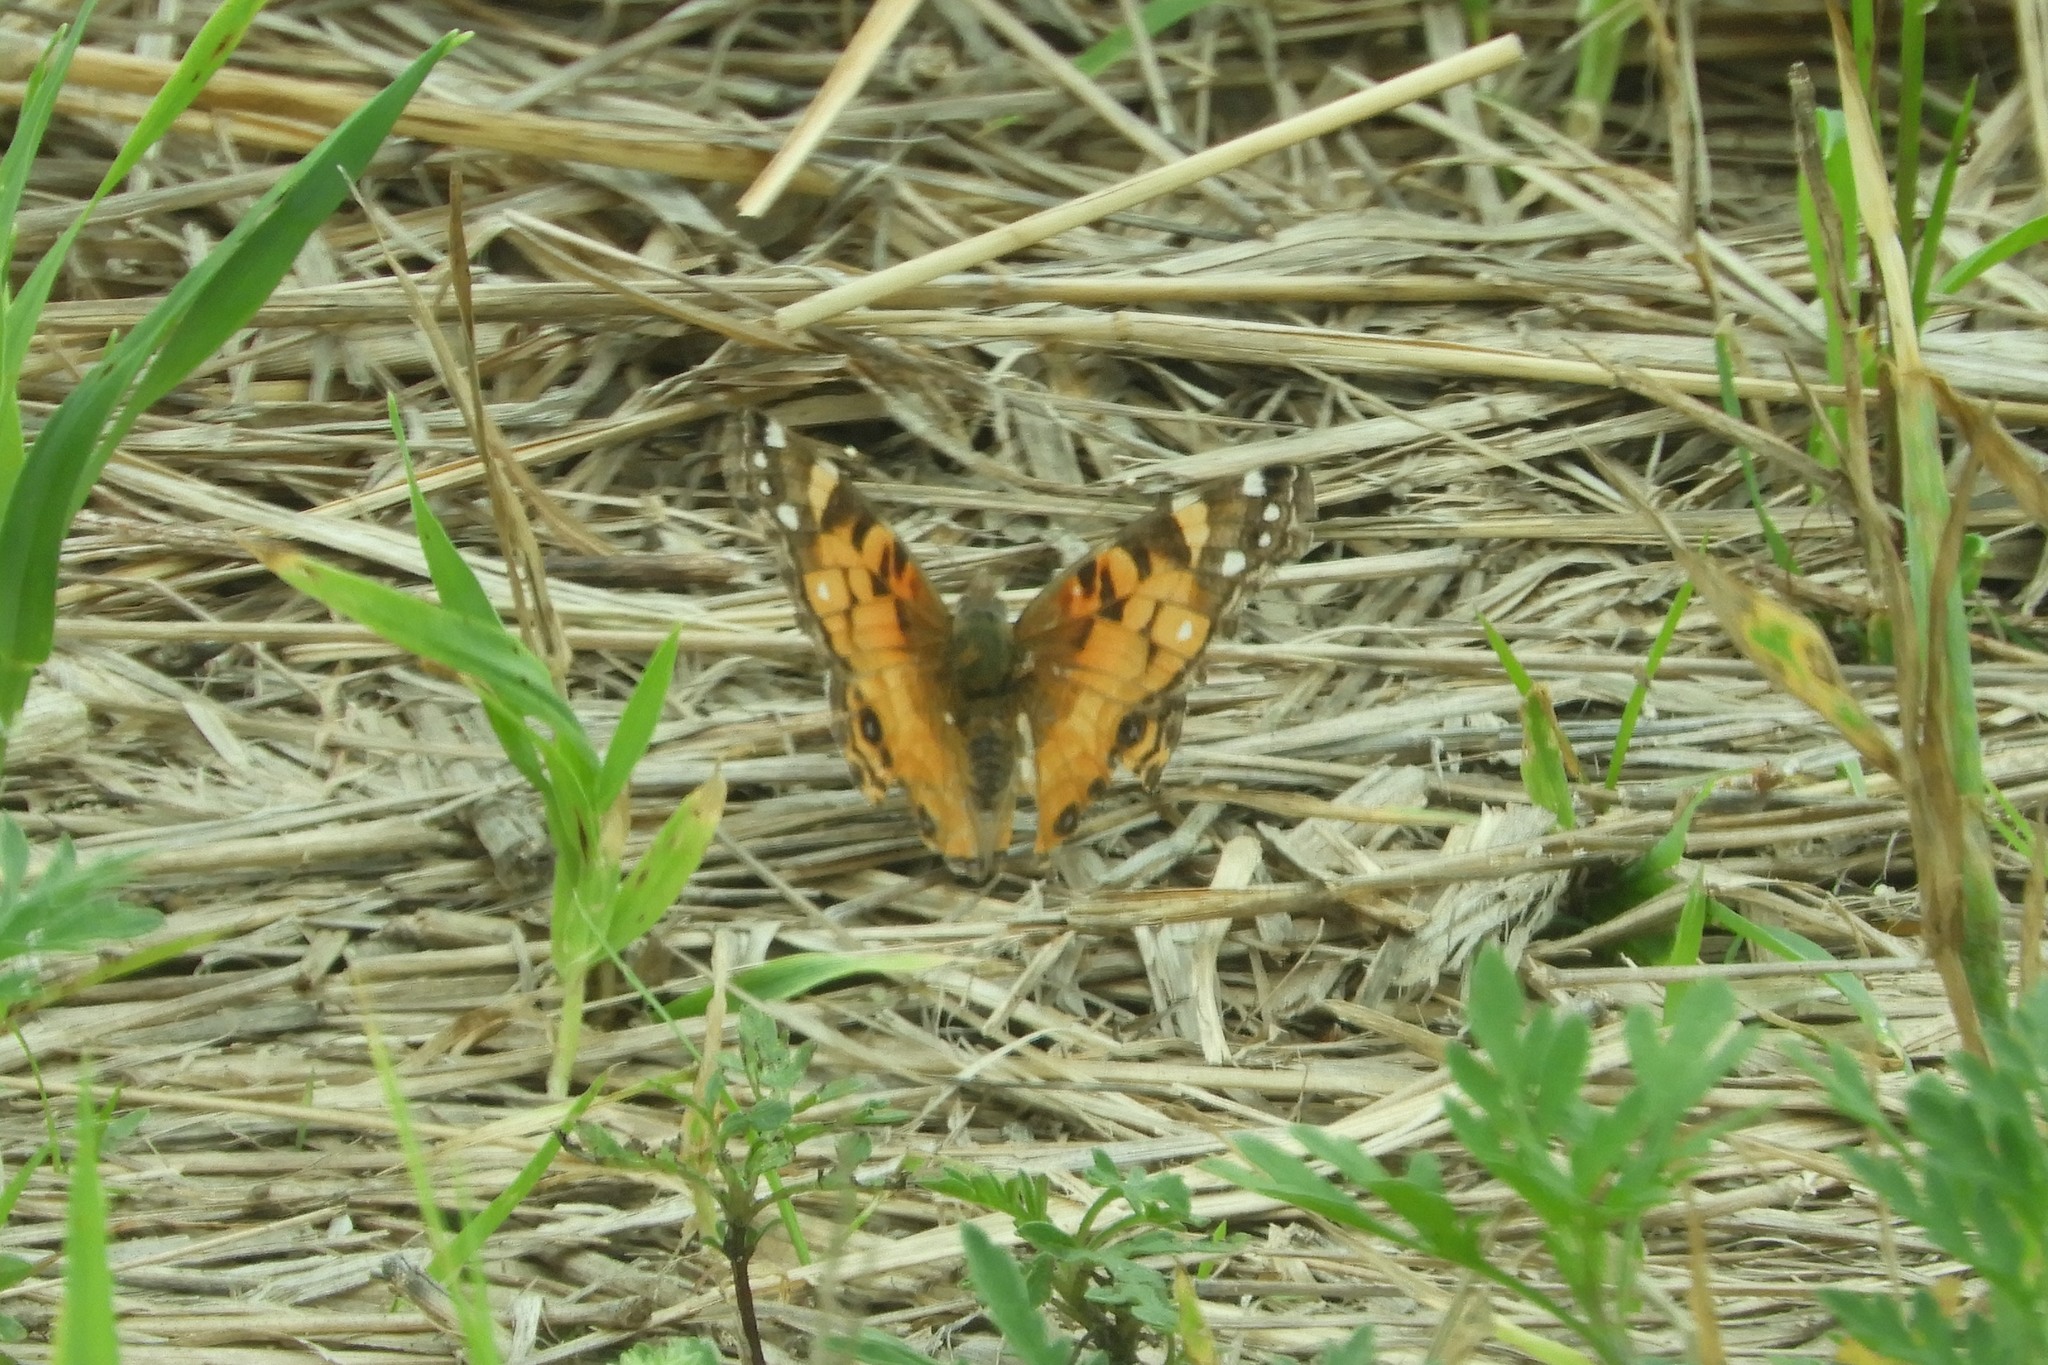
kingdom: Animalia
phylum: Arthropoda
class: Insecta
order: Lepidoptera
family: Nymphalidae
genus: Vanessa
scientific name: Vanessa virginiensis
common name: American lady
